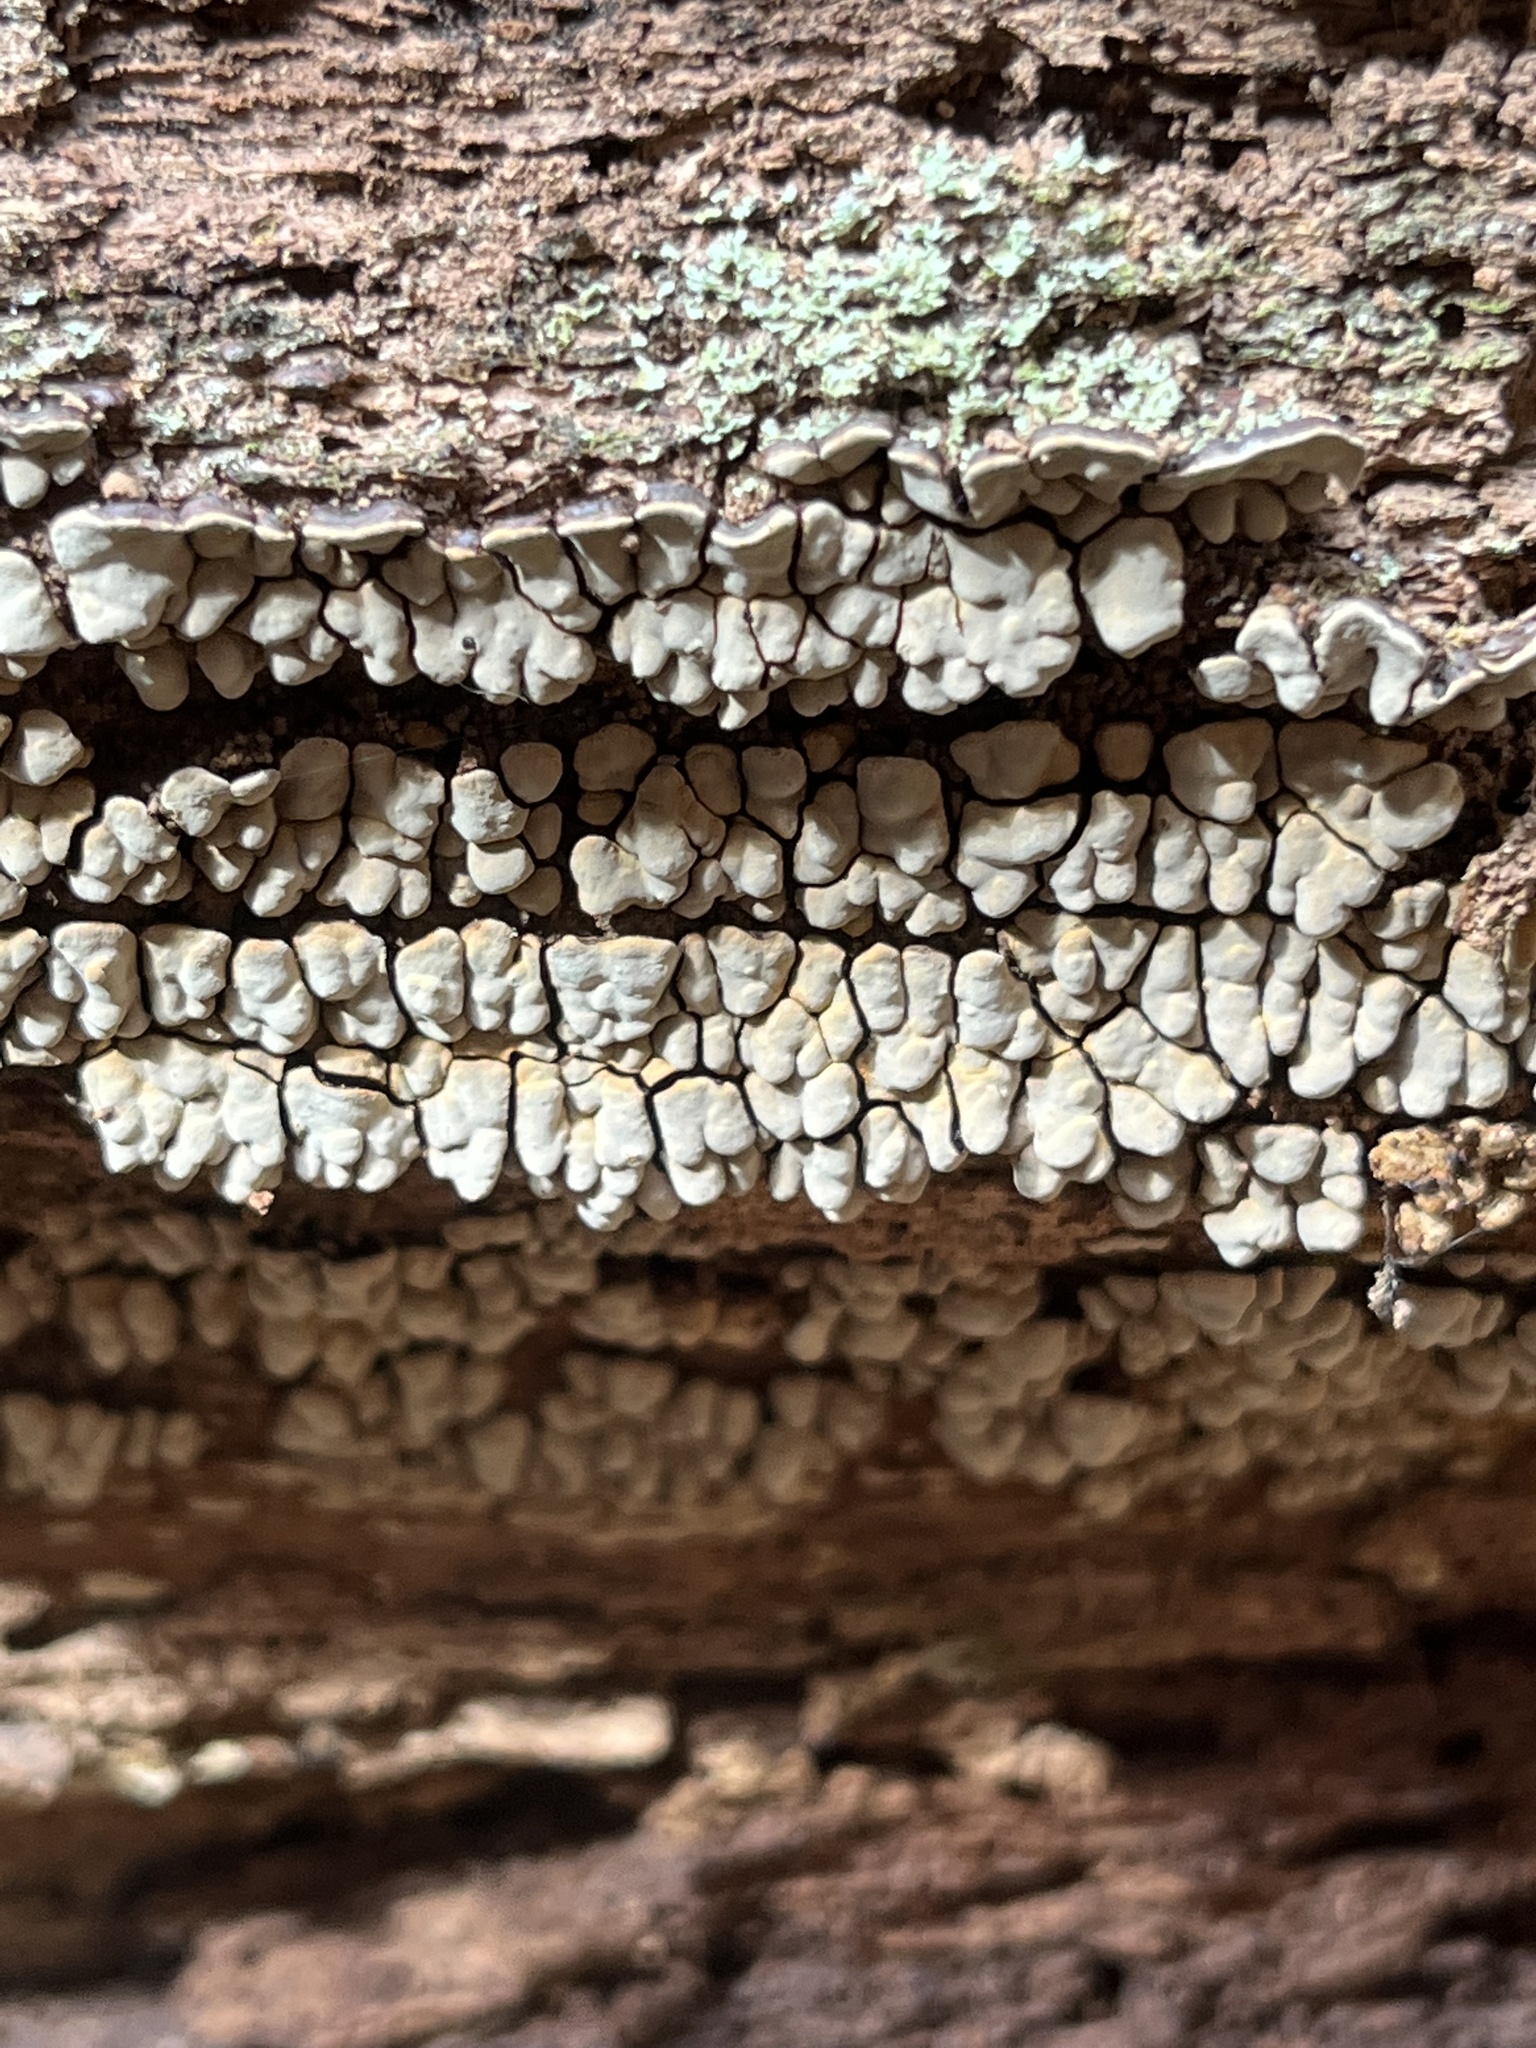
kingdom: Fungi
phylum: Basidiomycota
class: Agaricomycetes
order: Russulales
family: Stereaceae
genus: Xylobolus
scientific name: Xylobolus frustulatus
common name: Ceramic parchment
